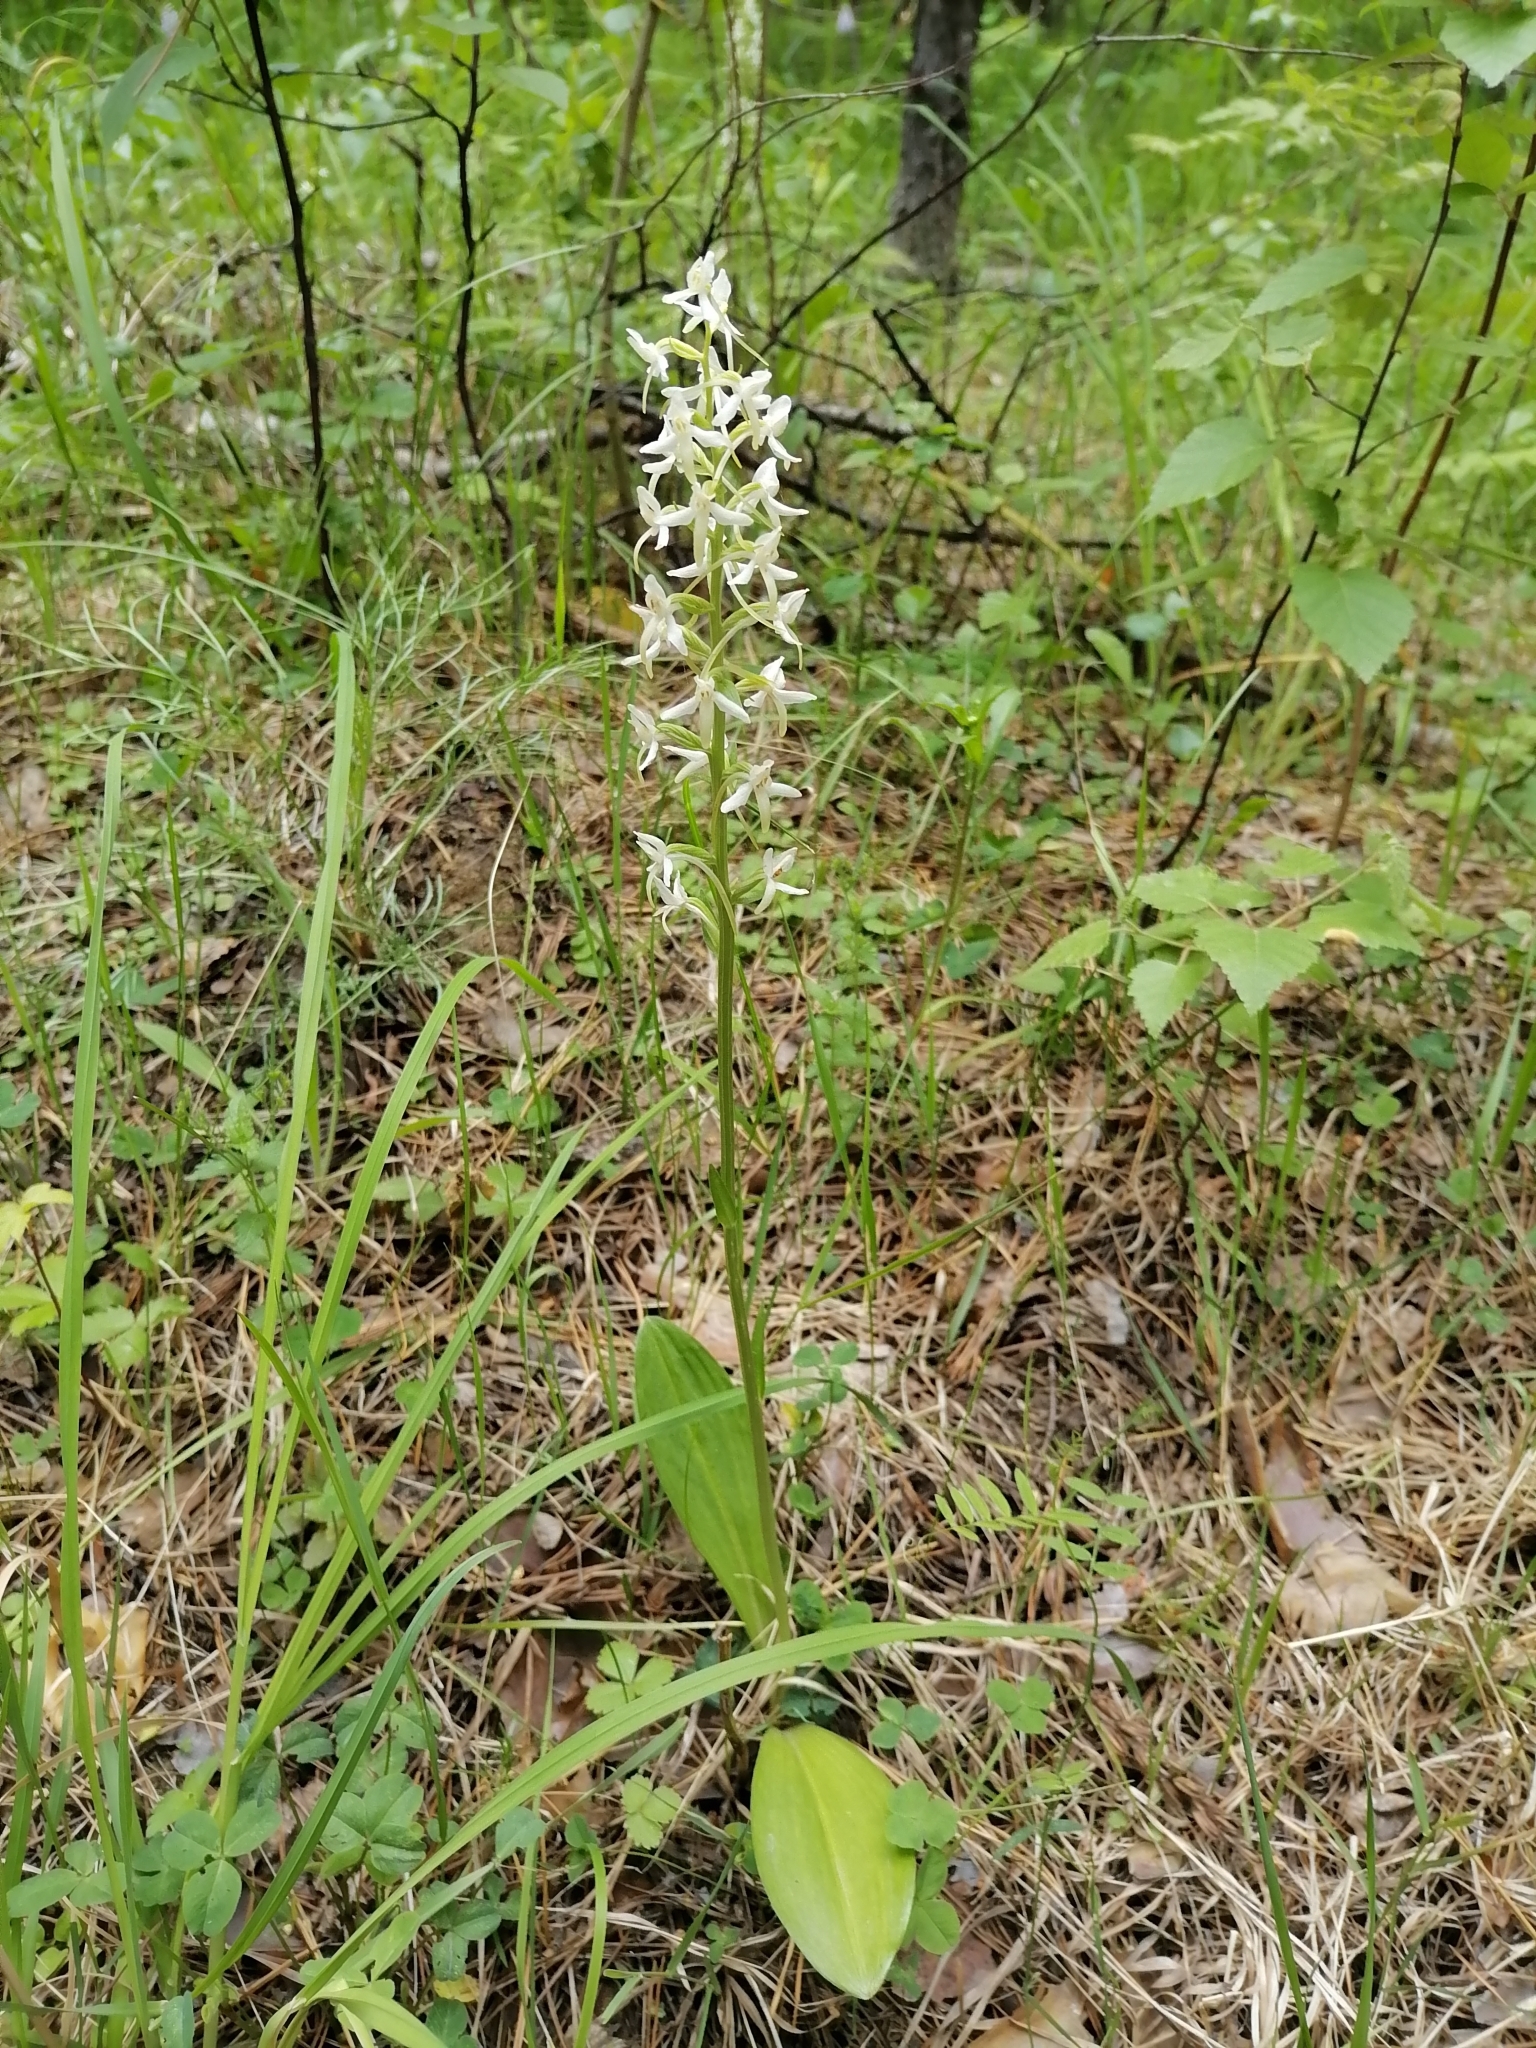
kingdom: Plantae
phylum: Tracheophyta
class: Liliopsida
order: Asparagales
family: Orchidaceae
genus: Platanthera
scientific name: Platanthera bifolia
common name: Lesser butterfly-orchid
